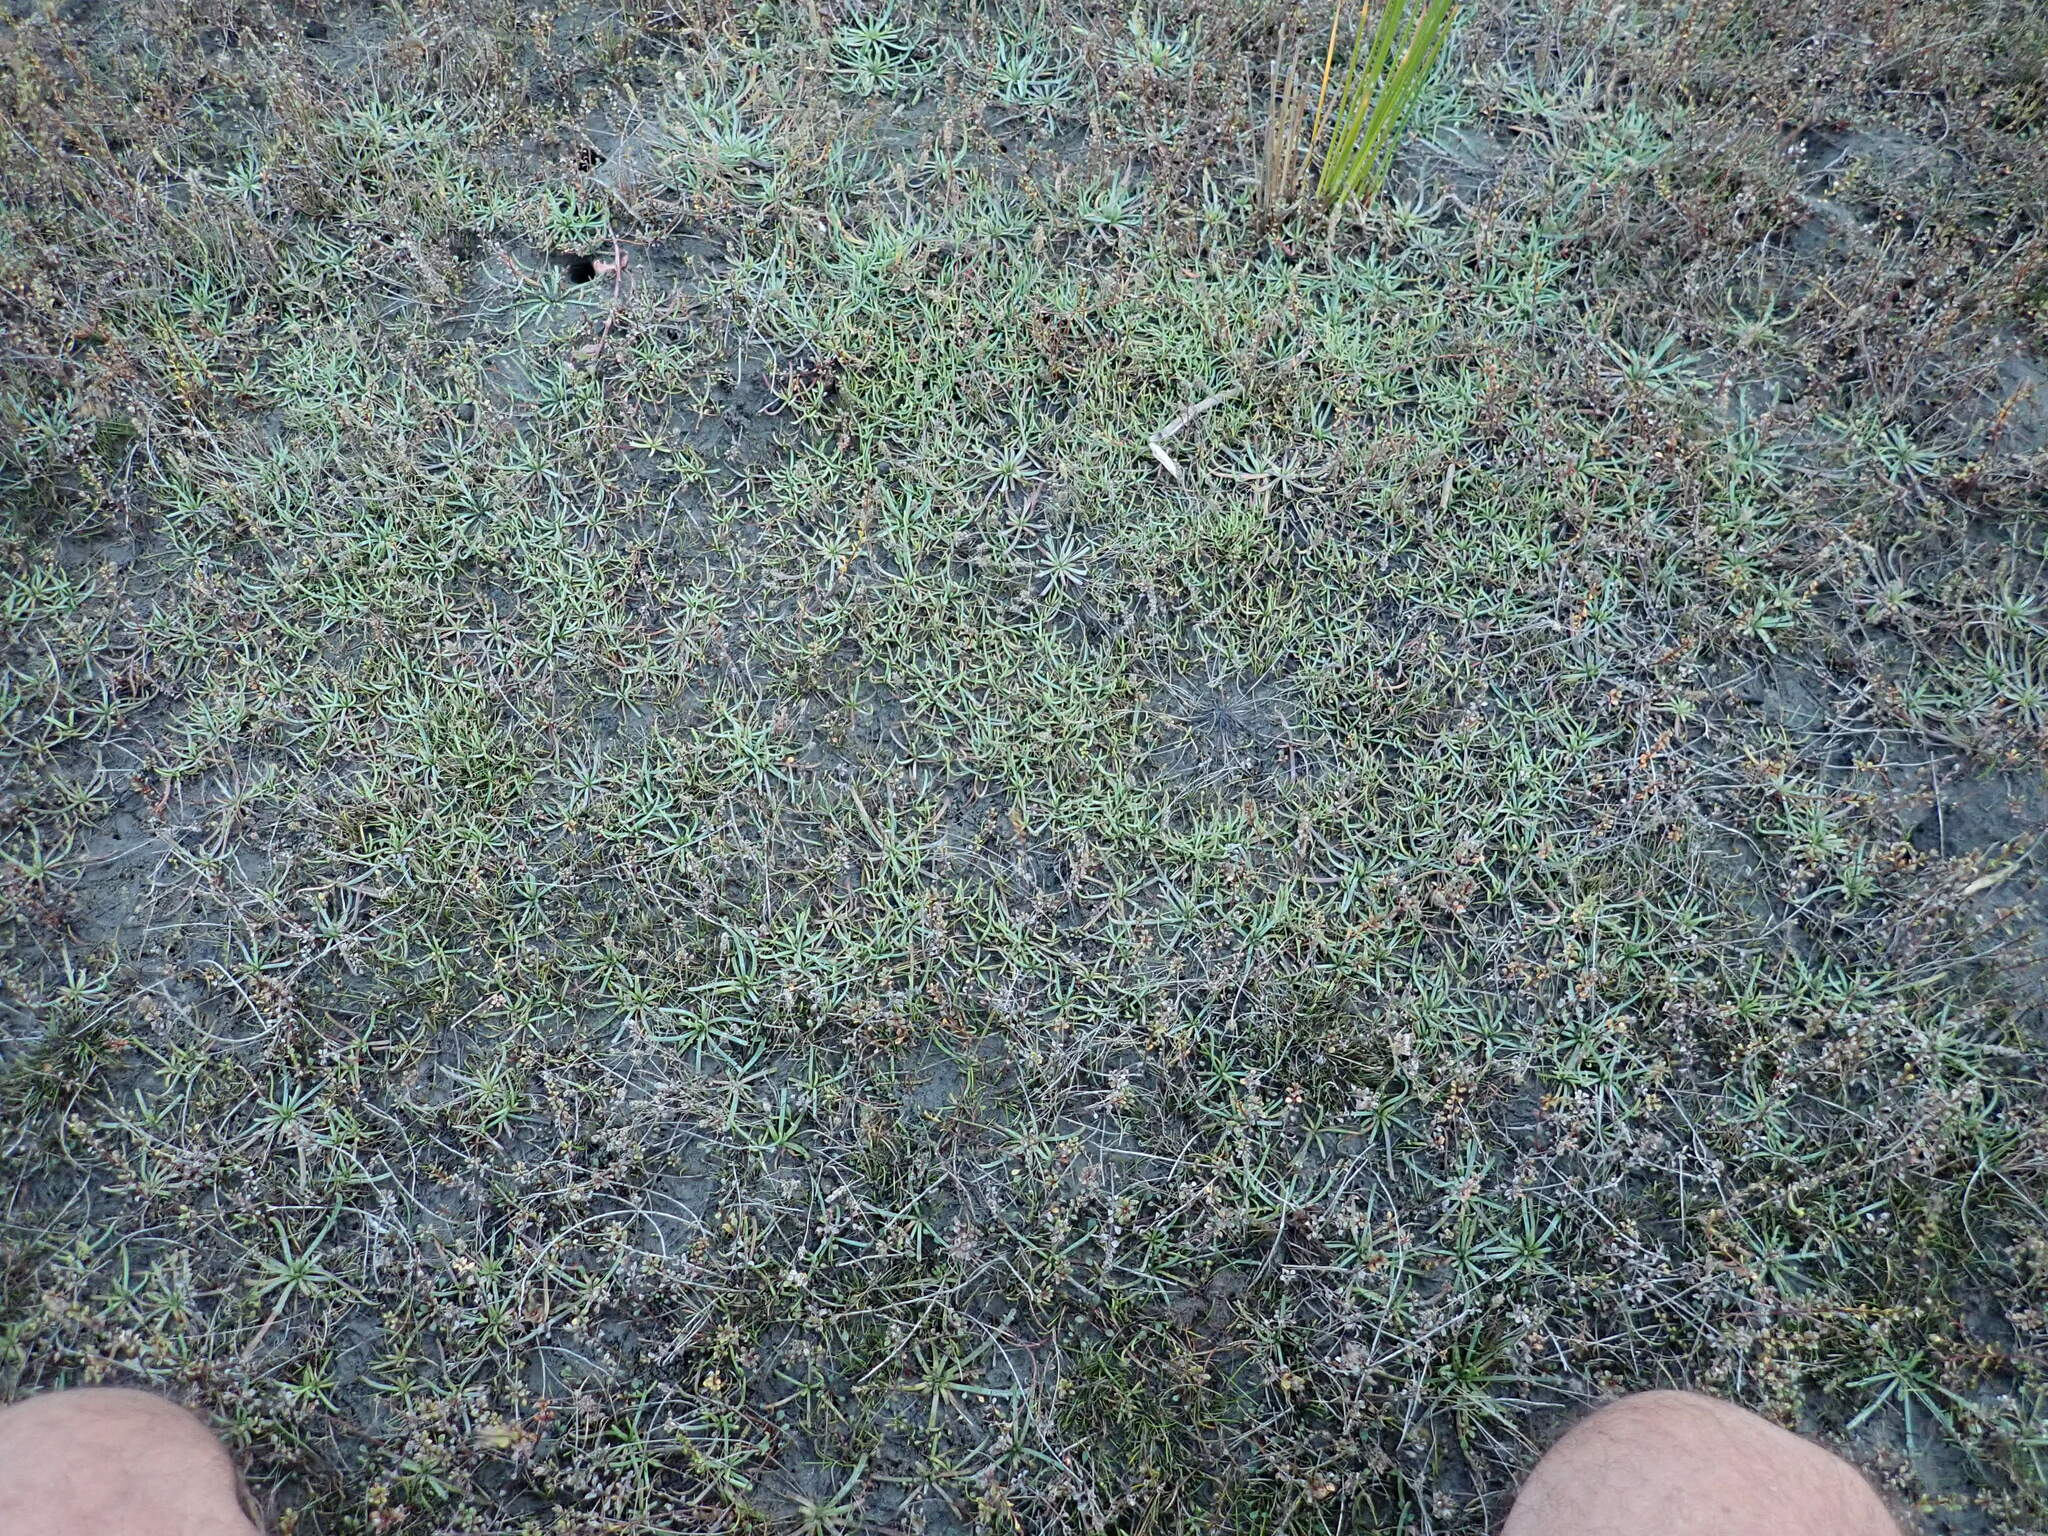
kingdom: Plantae
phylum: Tracheophyta
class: Magnoliopsida
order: Lamiales
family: Plantaginaceae
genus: Plantago
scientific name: Plantago coronopus
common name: Buck's-horn plantain
